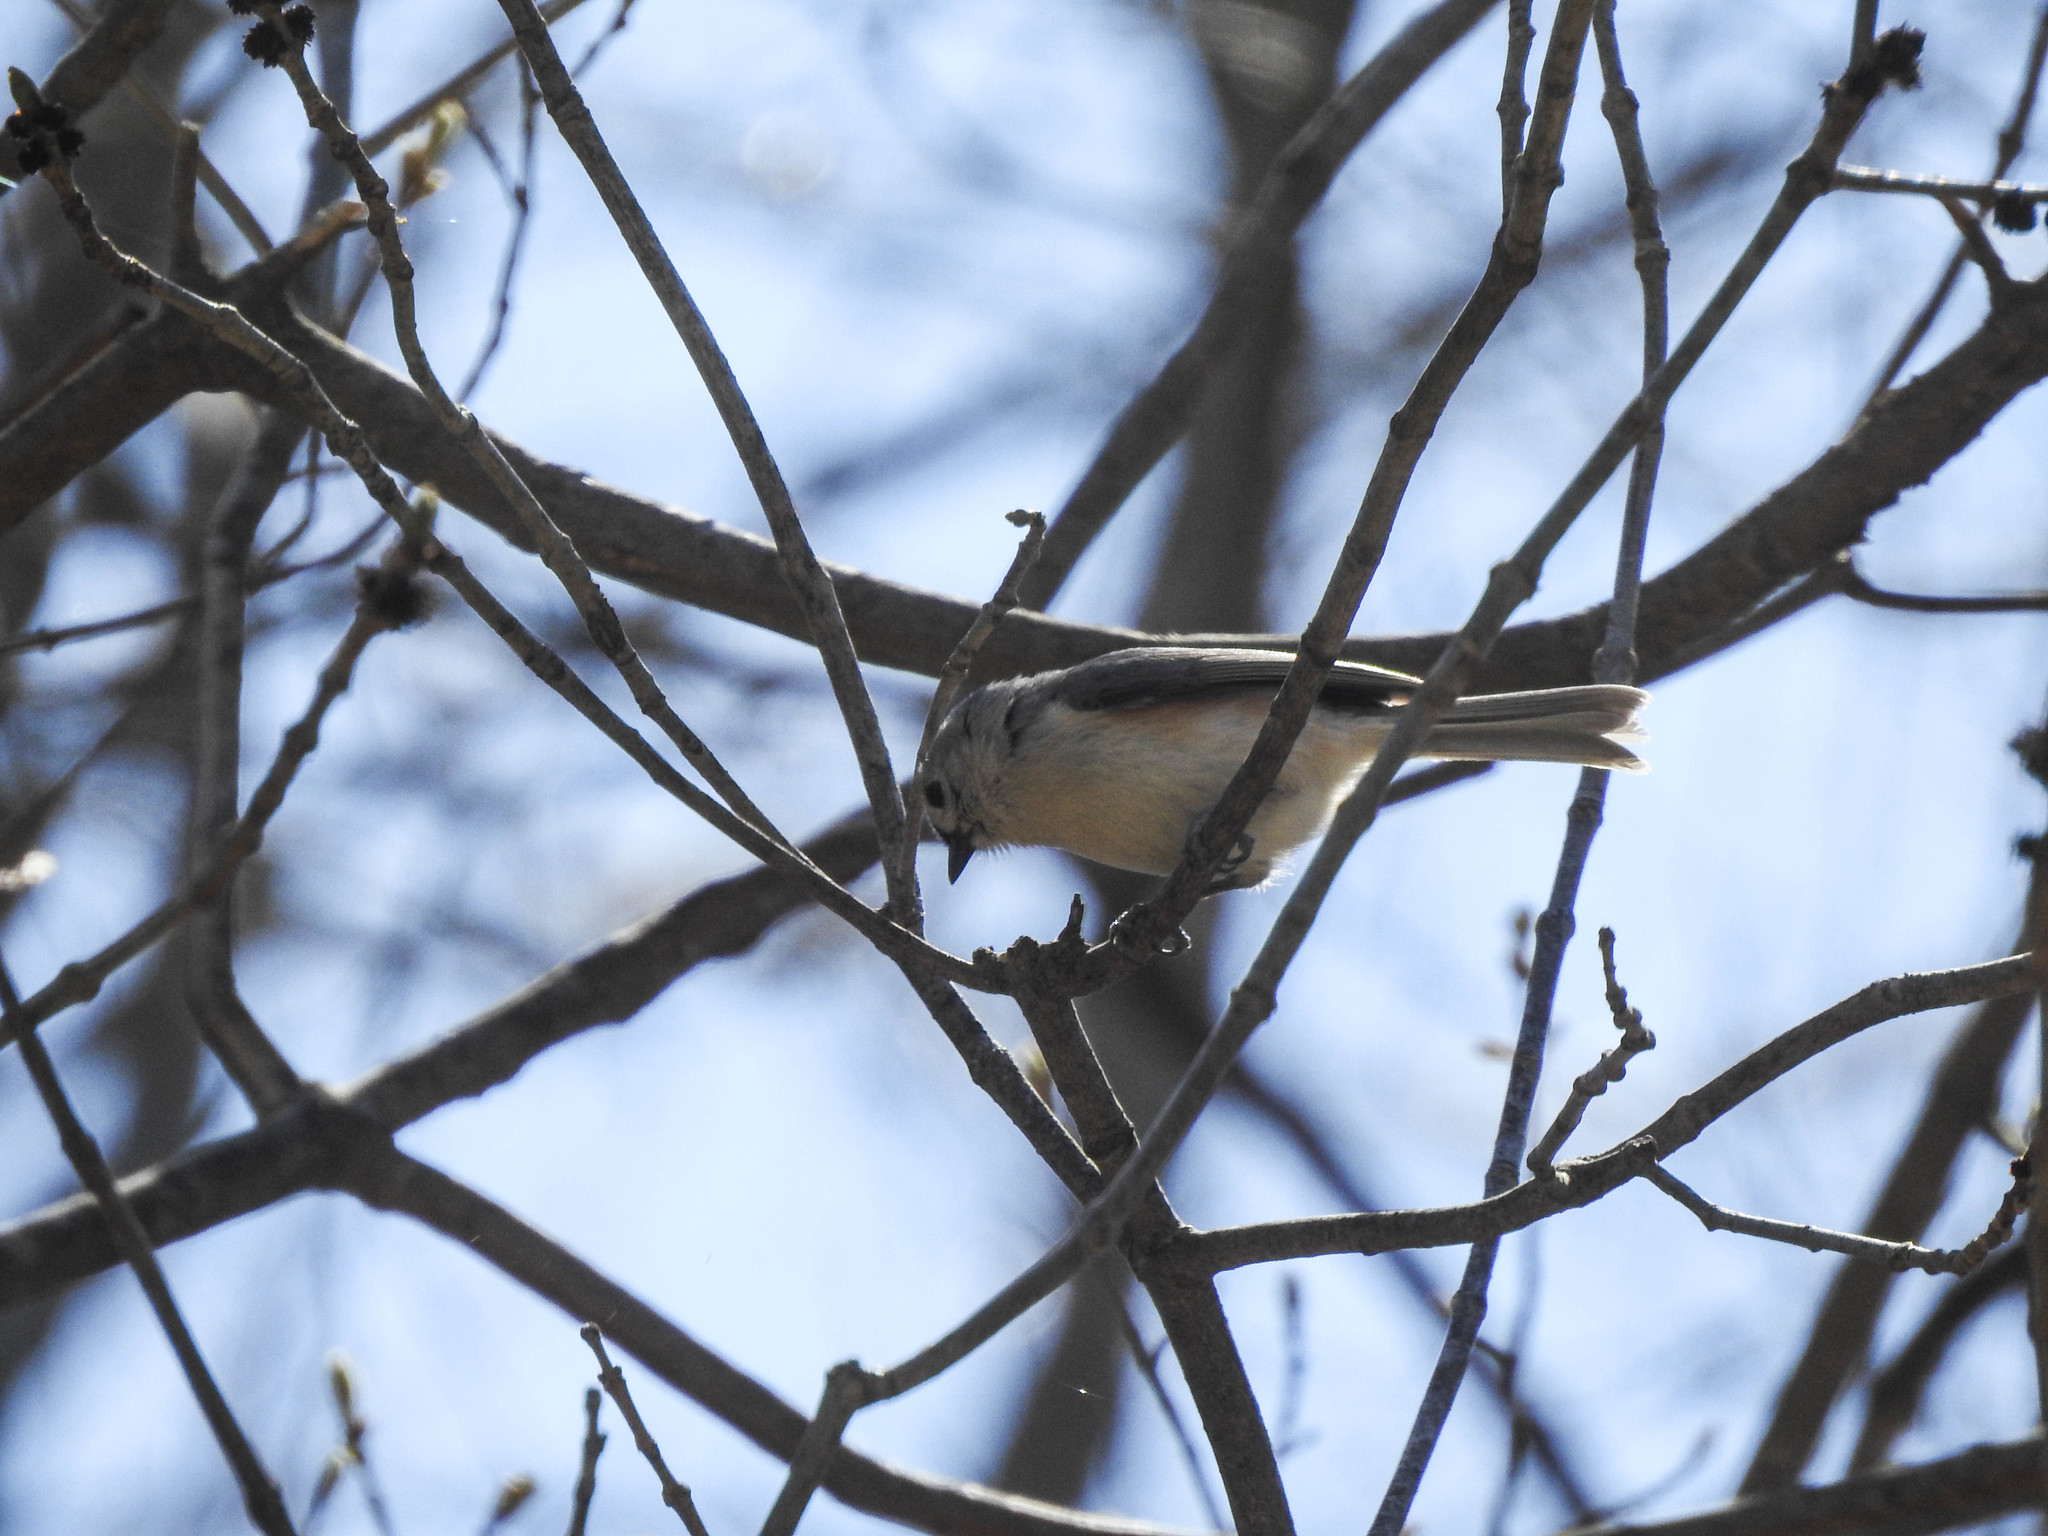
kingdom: Animalia
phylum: Chordata
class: Aves
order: Passeriformes
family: Paridae
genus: Baeolophus
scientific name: Baeolophus bicolor
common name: Tufted titmouse
